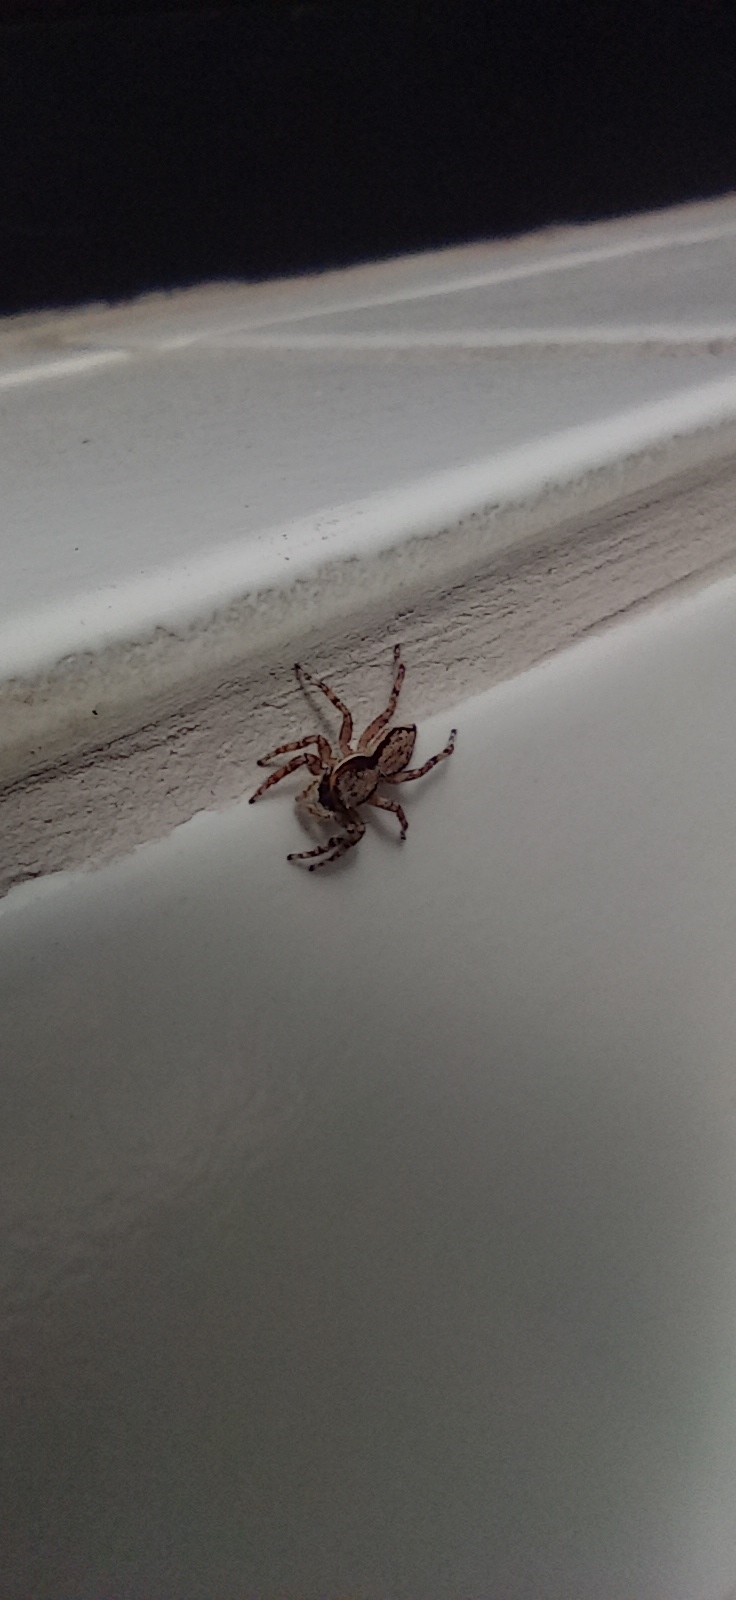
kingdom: Animalia
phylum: Arthropoda
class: Arachnida
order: Araneae
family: Salticidae
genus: Menemerus
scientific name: Menemerus bivittatus
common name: Gray wall jumper
